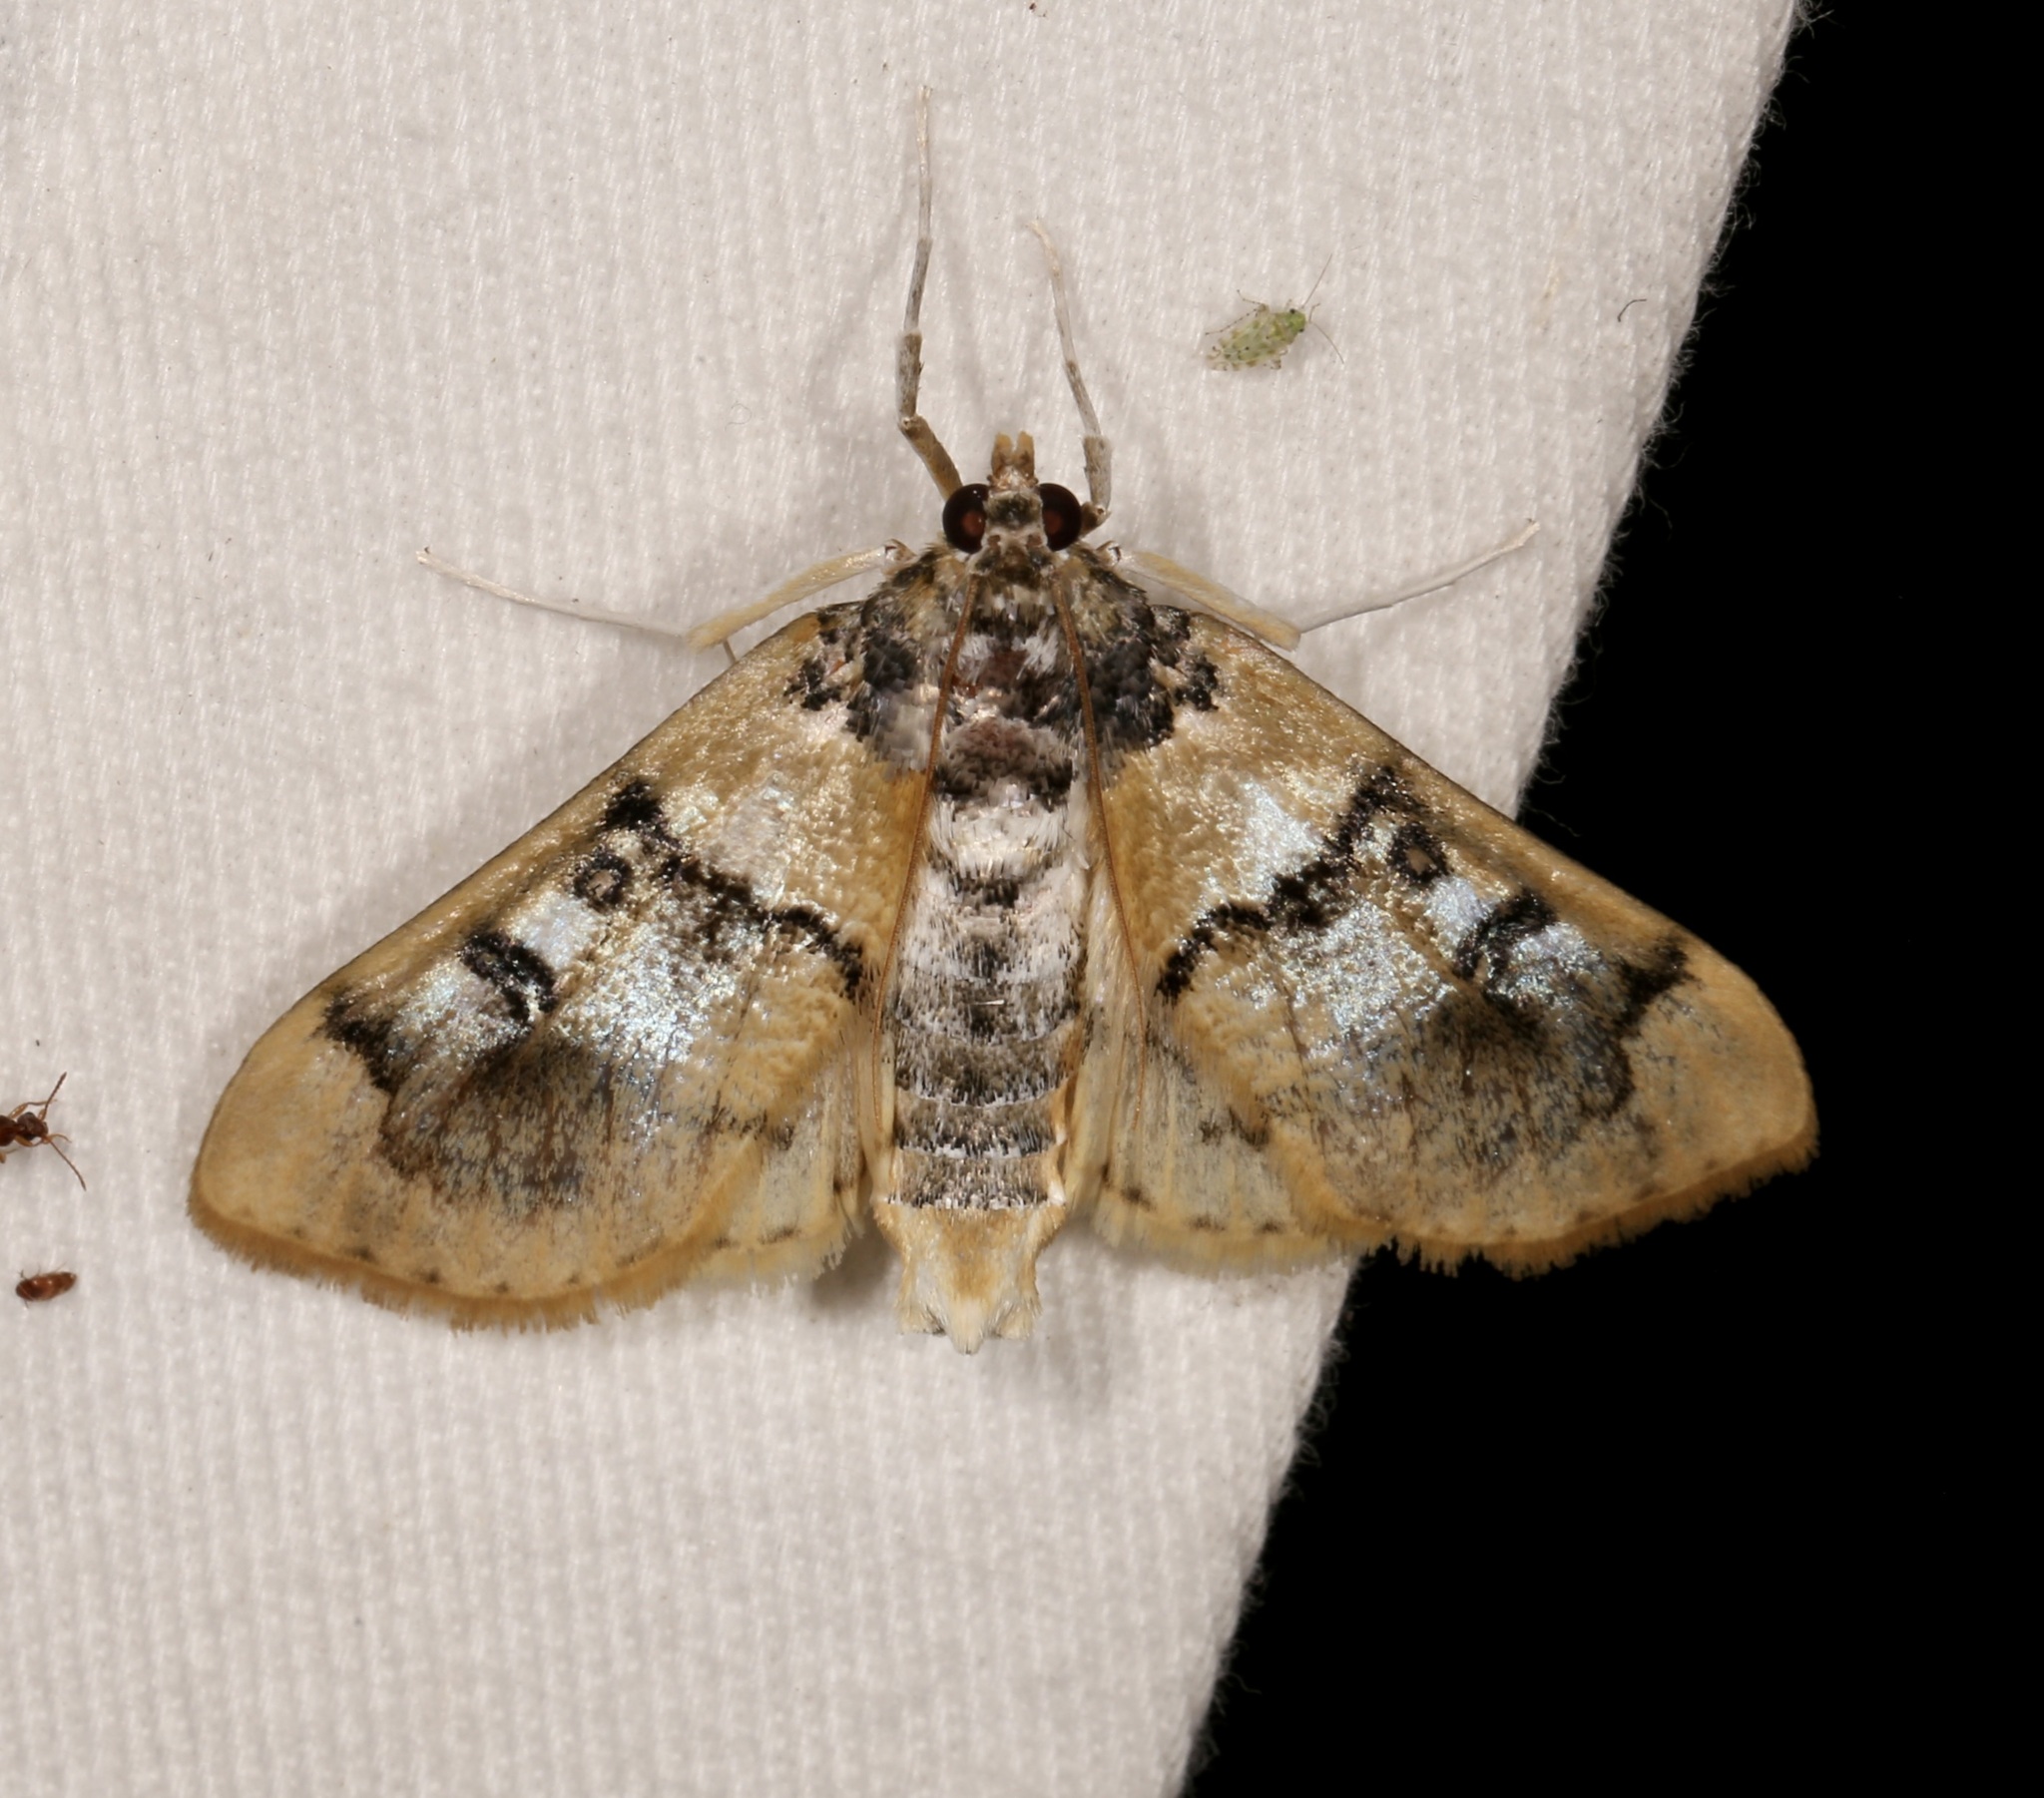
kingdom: Animalia
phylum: Arthropoda
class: Insecta
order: Lepidoptera
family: Crambidae
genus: Laniifera
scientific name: Laniifera cyclades
